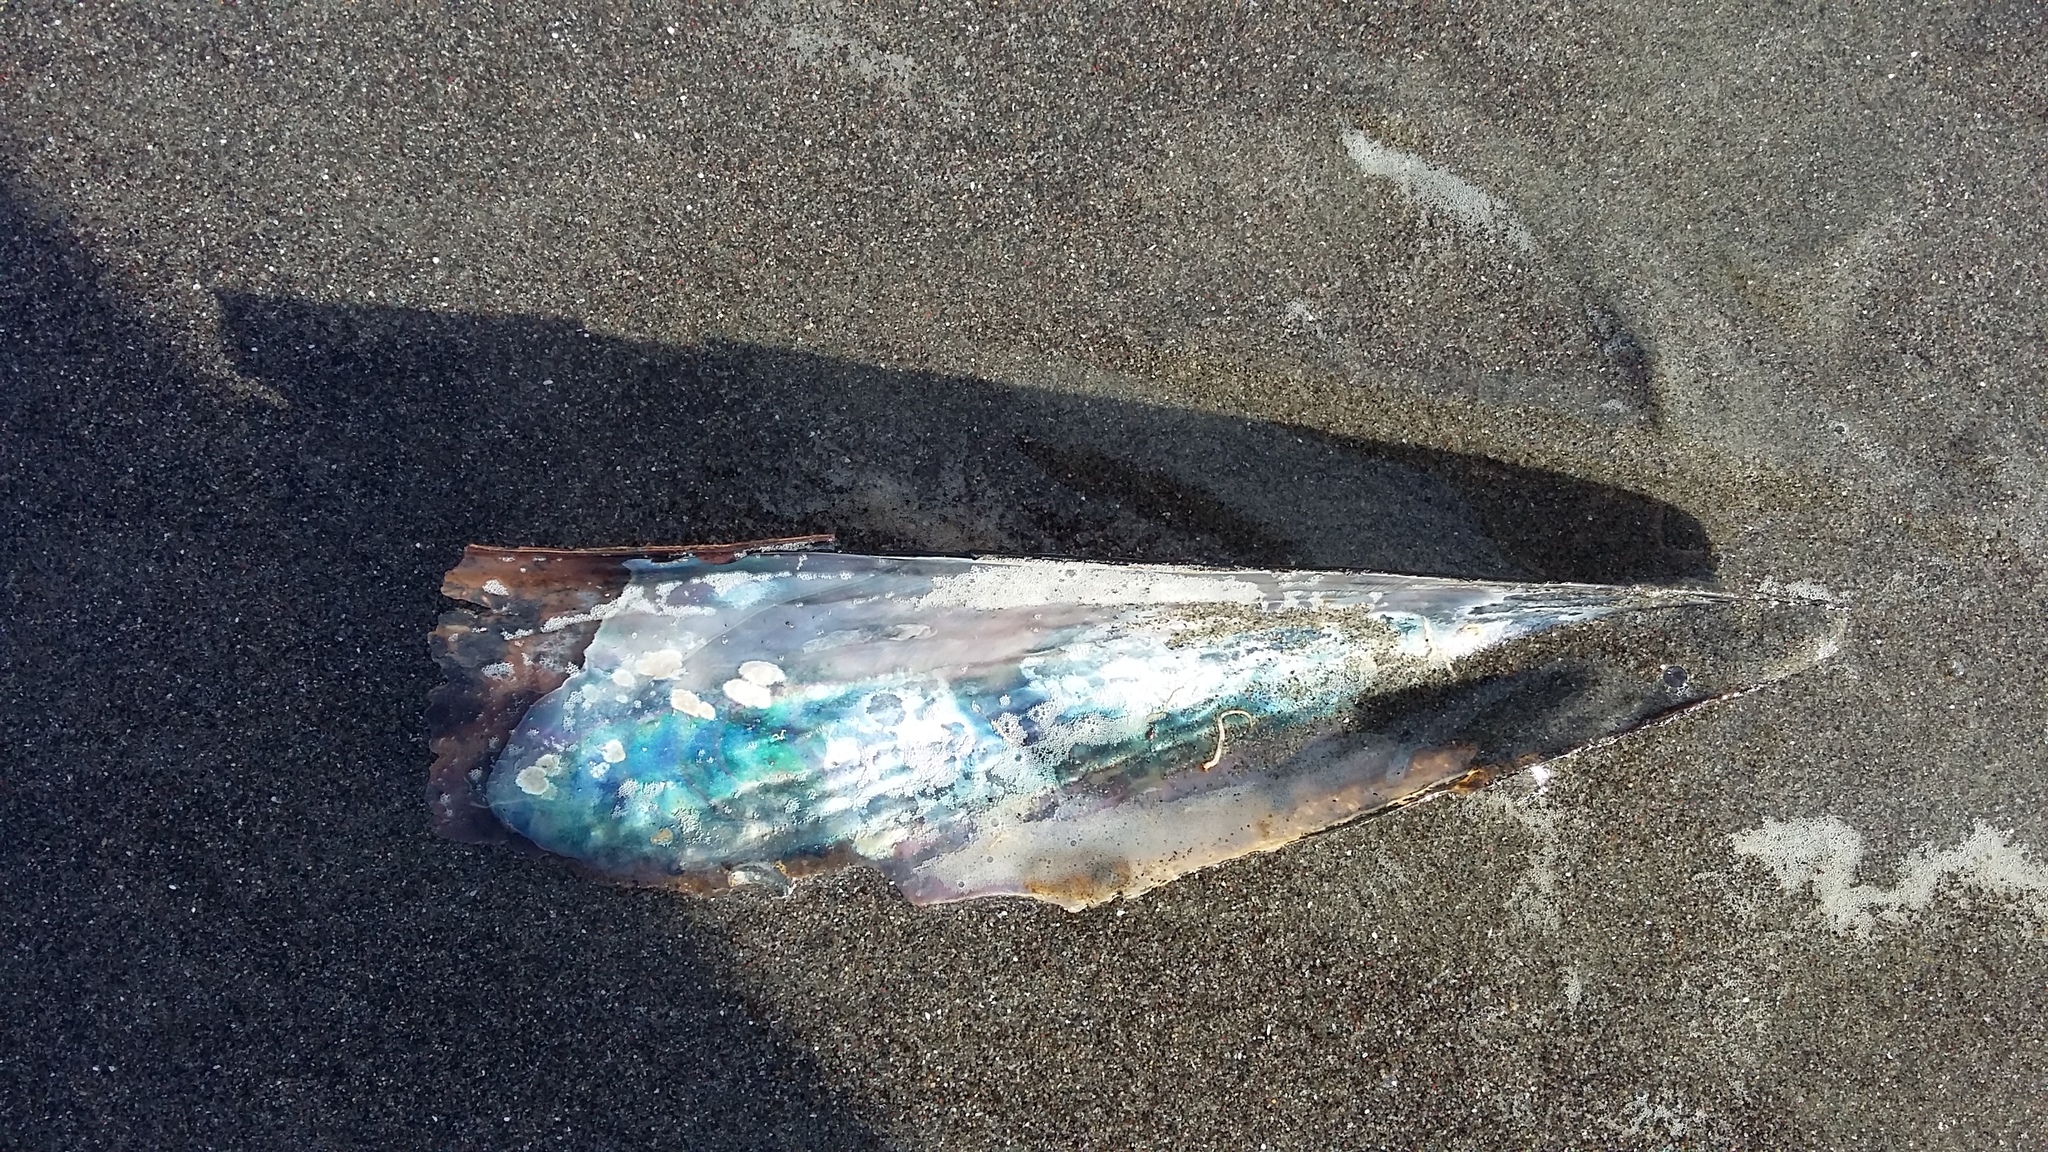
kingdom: Animalia
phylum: Mollusca
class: Bivalvia
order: Ostreida
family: Pinnidae
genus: Atrina
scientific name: Atrina zelandica
